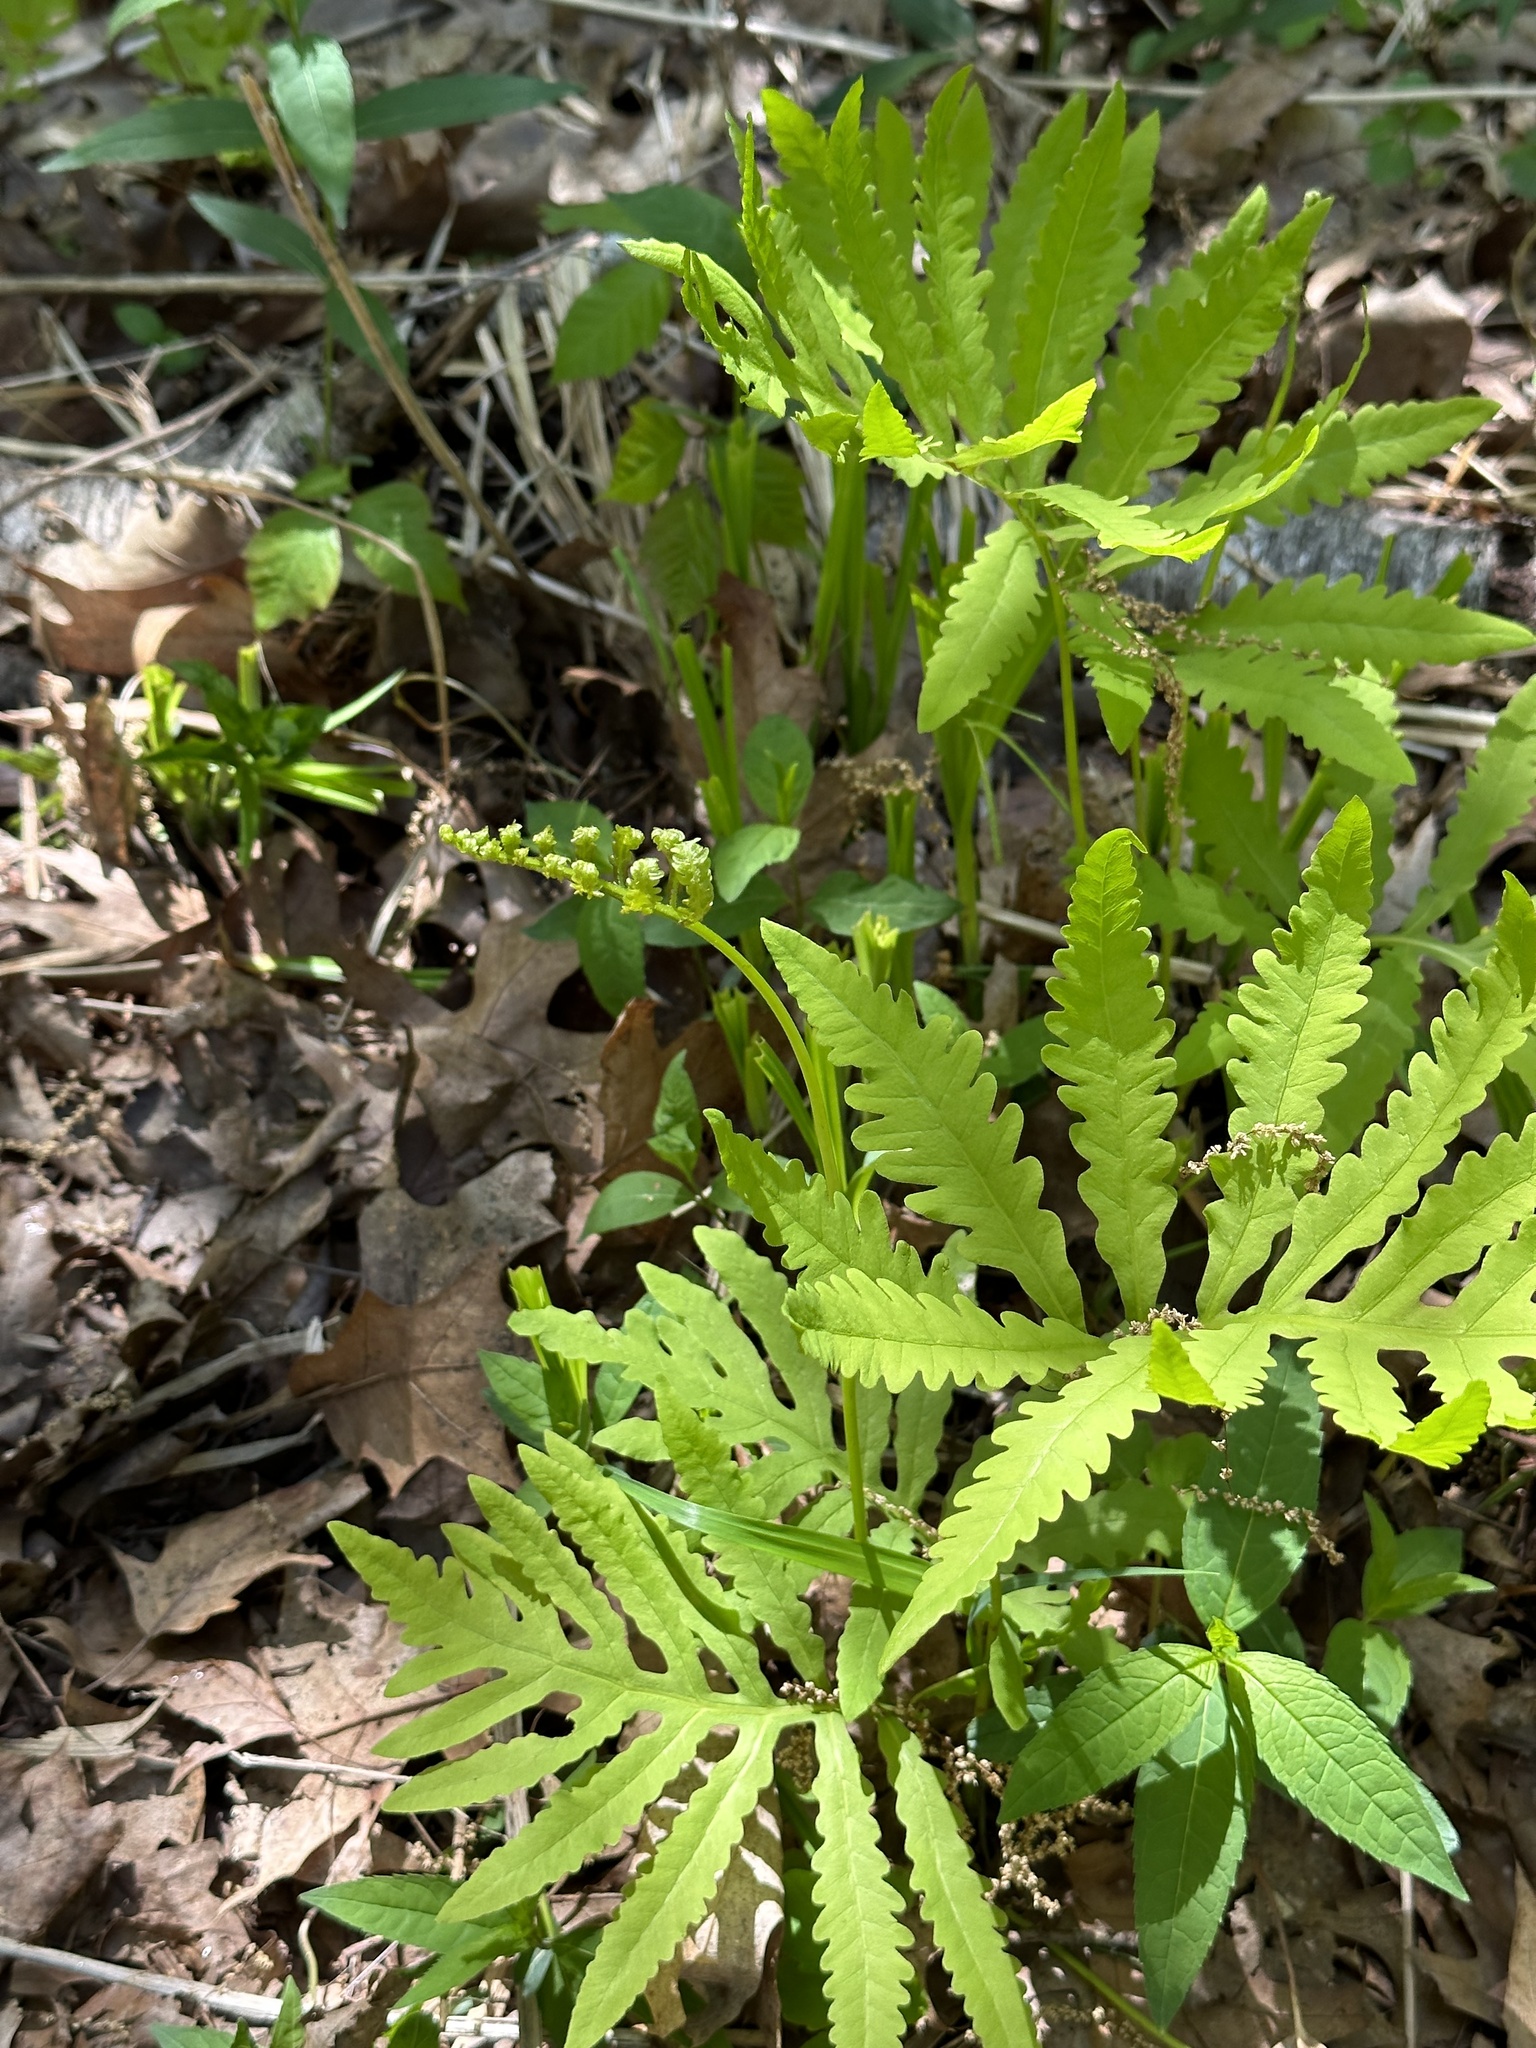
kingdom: Plantae
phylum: Tracheophyta
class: Polypodiopsida
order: Polypodiales
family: Onocleaceae
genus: Onoclea
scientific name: Onoclea sensibilis
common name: Sensitive fern
